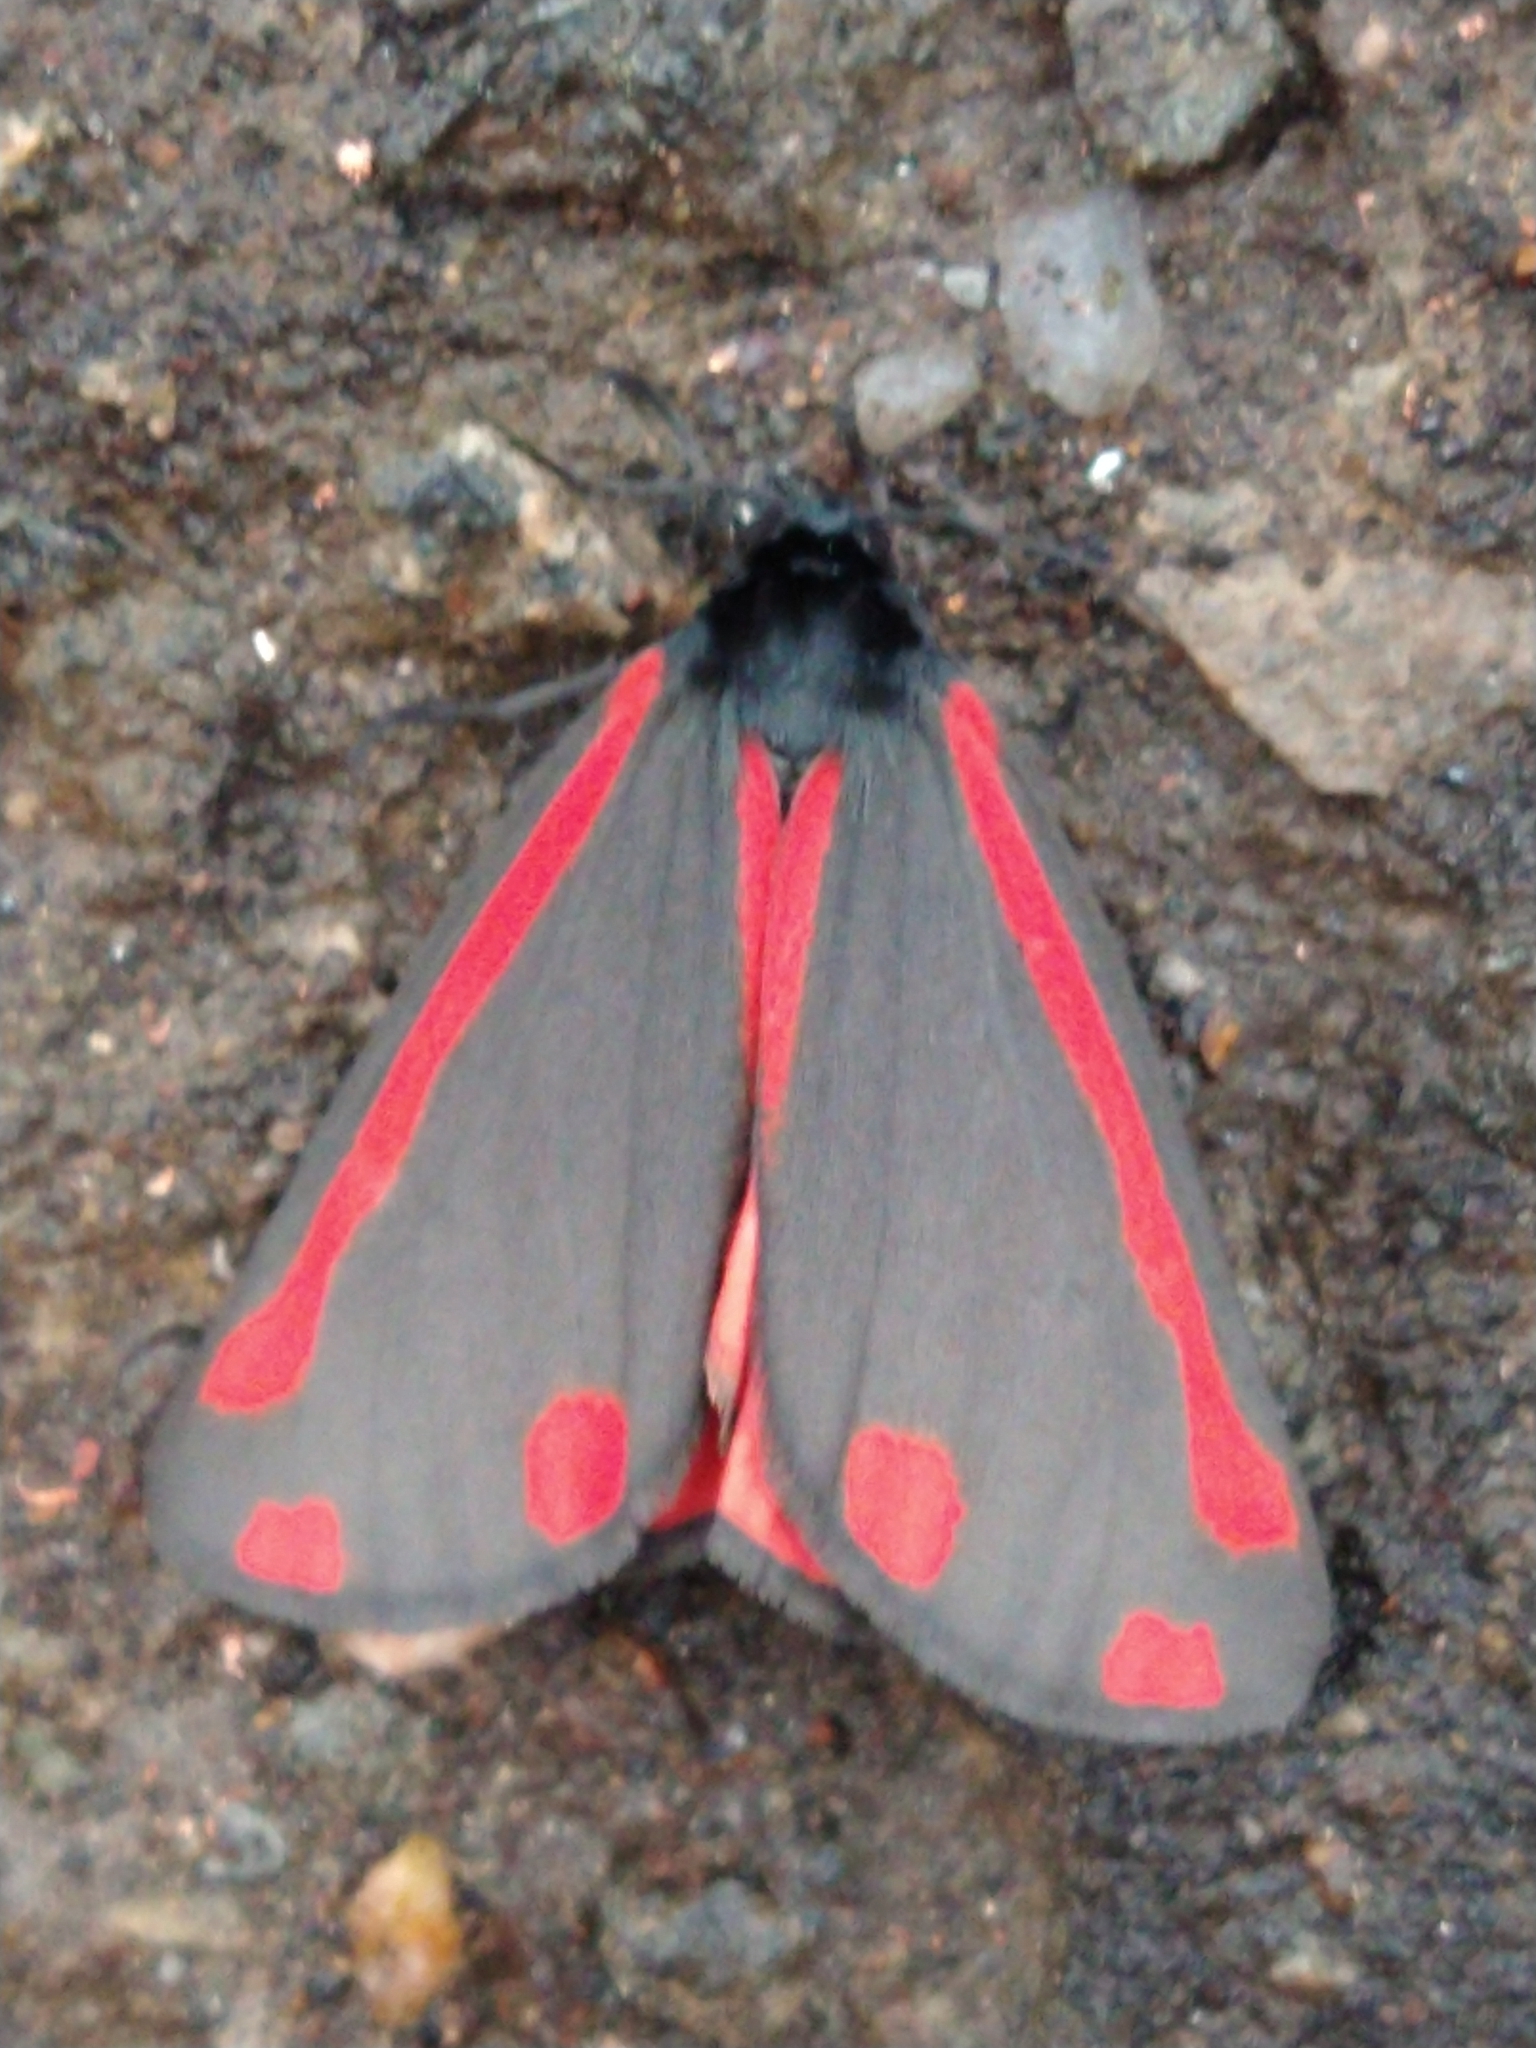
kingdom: Animalia
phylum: Arthropoda
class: Insecta
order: Lepidoptera
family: Erebidae
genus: Tyria
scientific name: Tyria jacobaeae
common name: Cinnabar
